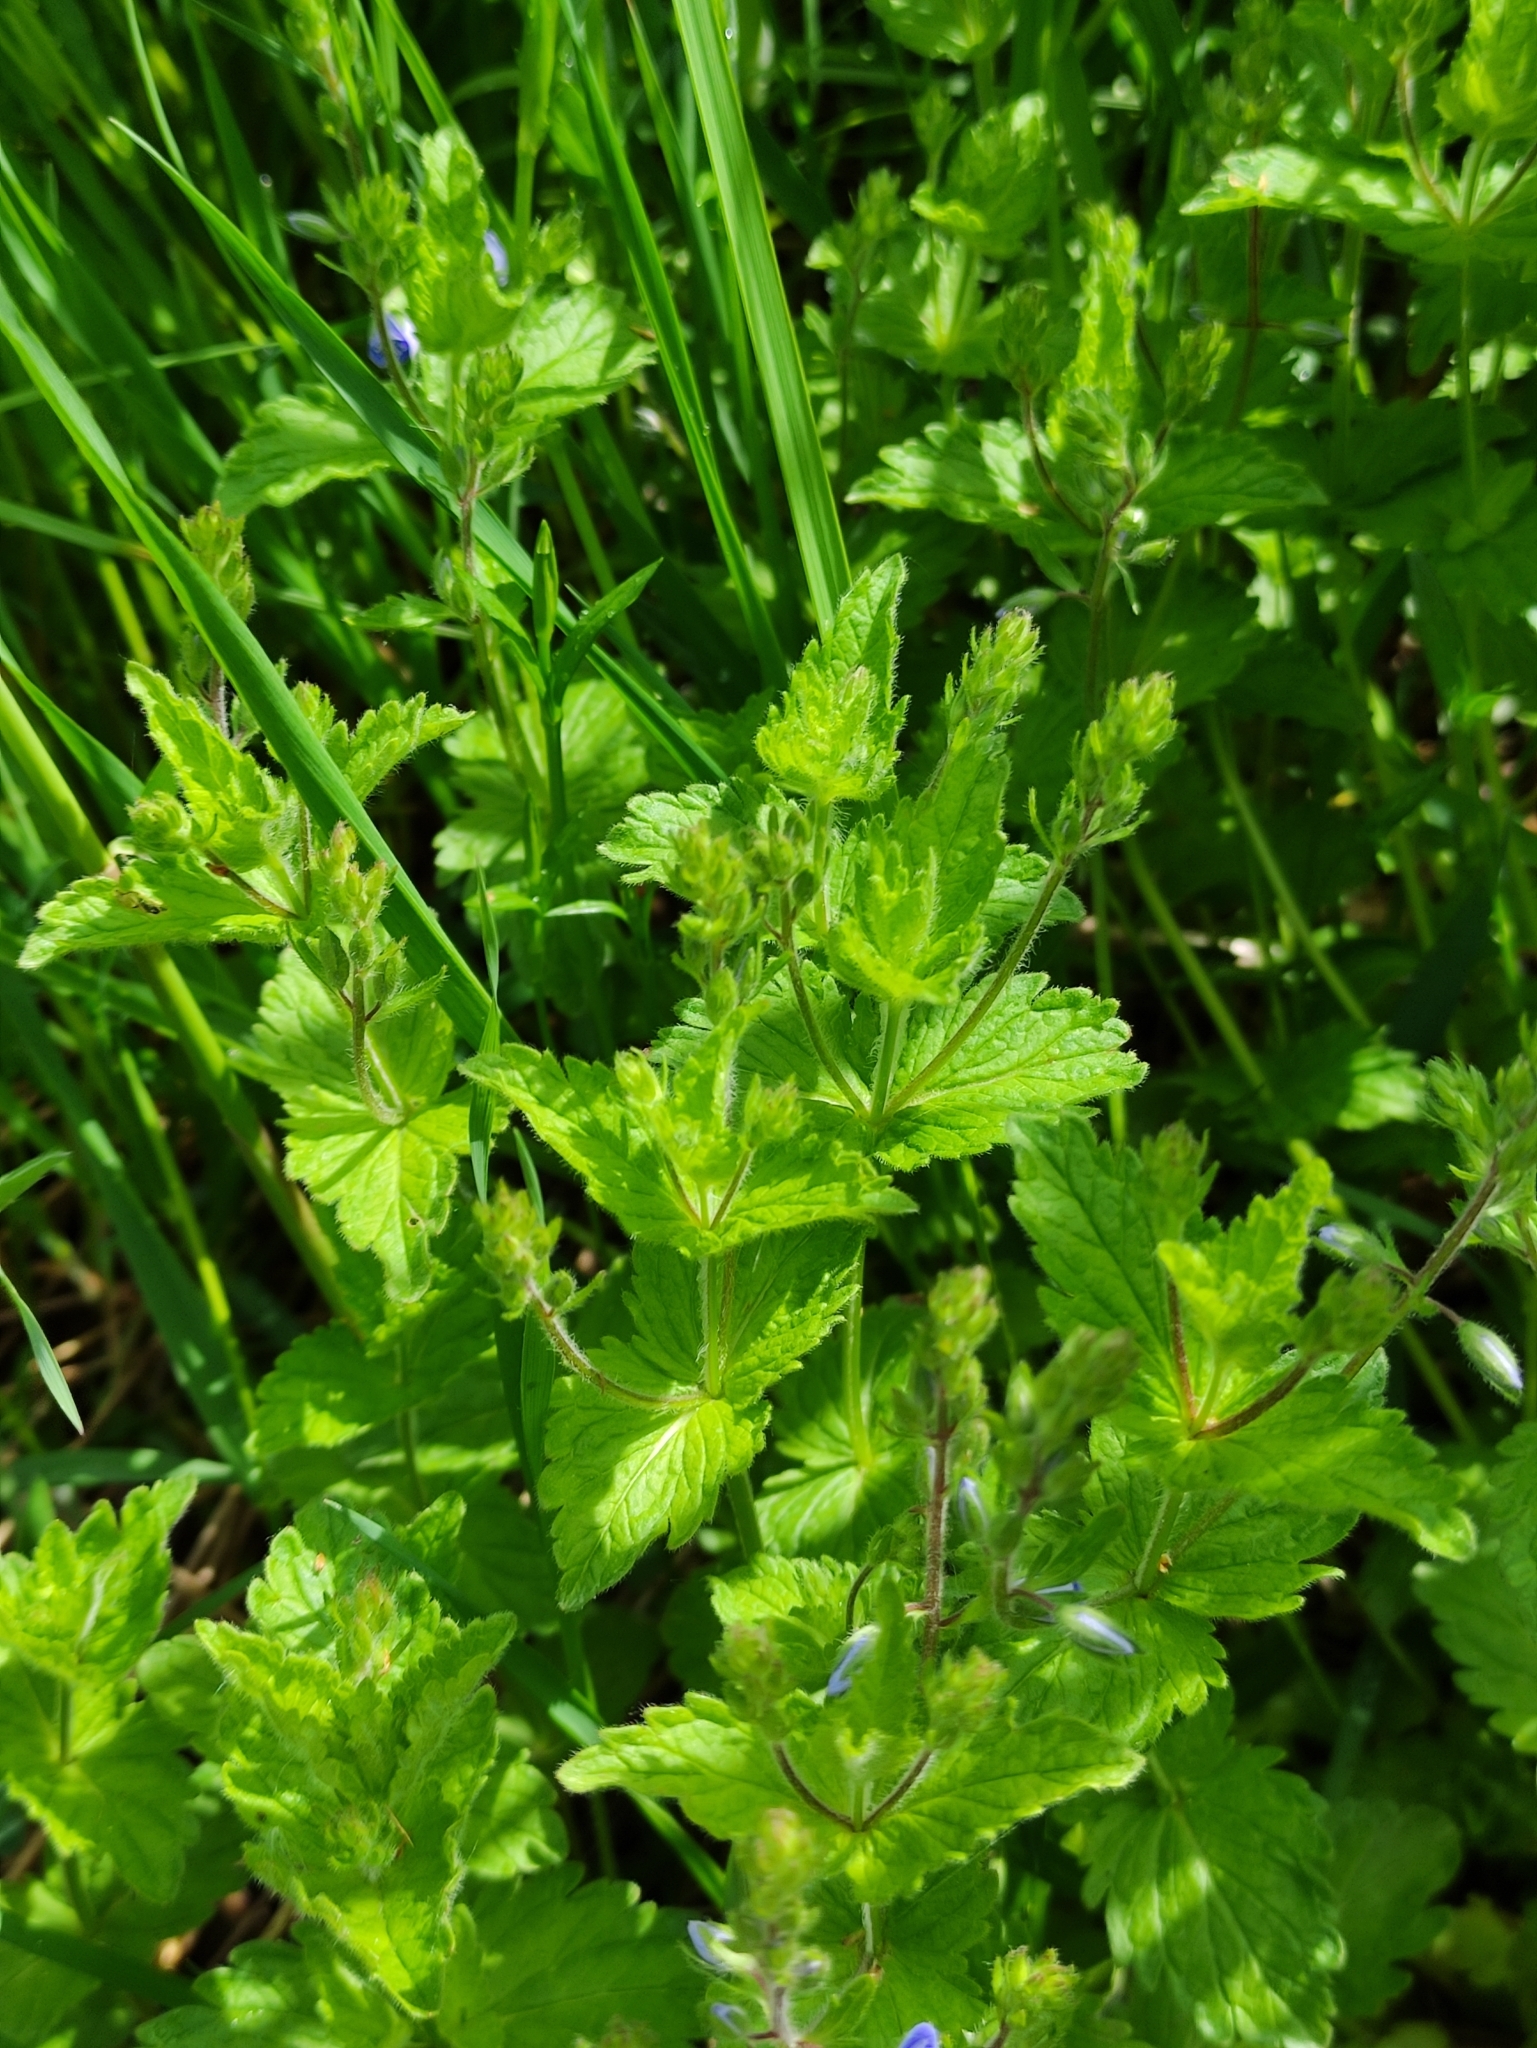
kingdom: Plantae
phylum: Tracheophyta
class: Magnoliopsida
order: Lamiales
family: Plantaginaceae
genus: Veronica
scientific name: Veronica chamaedrys
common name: Germander speedwell
